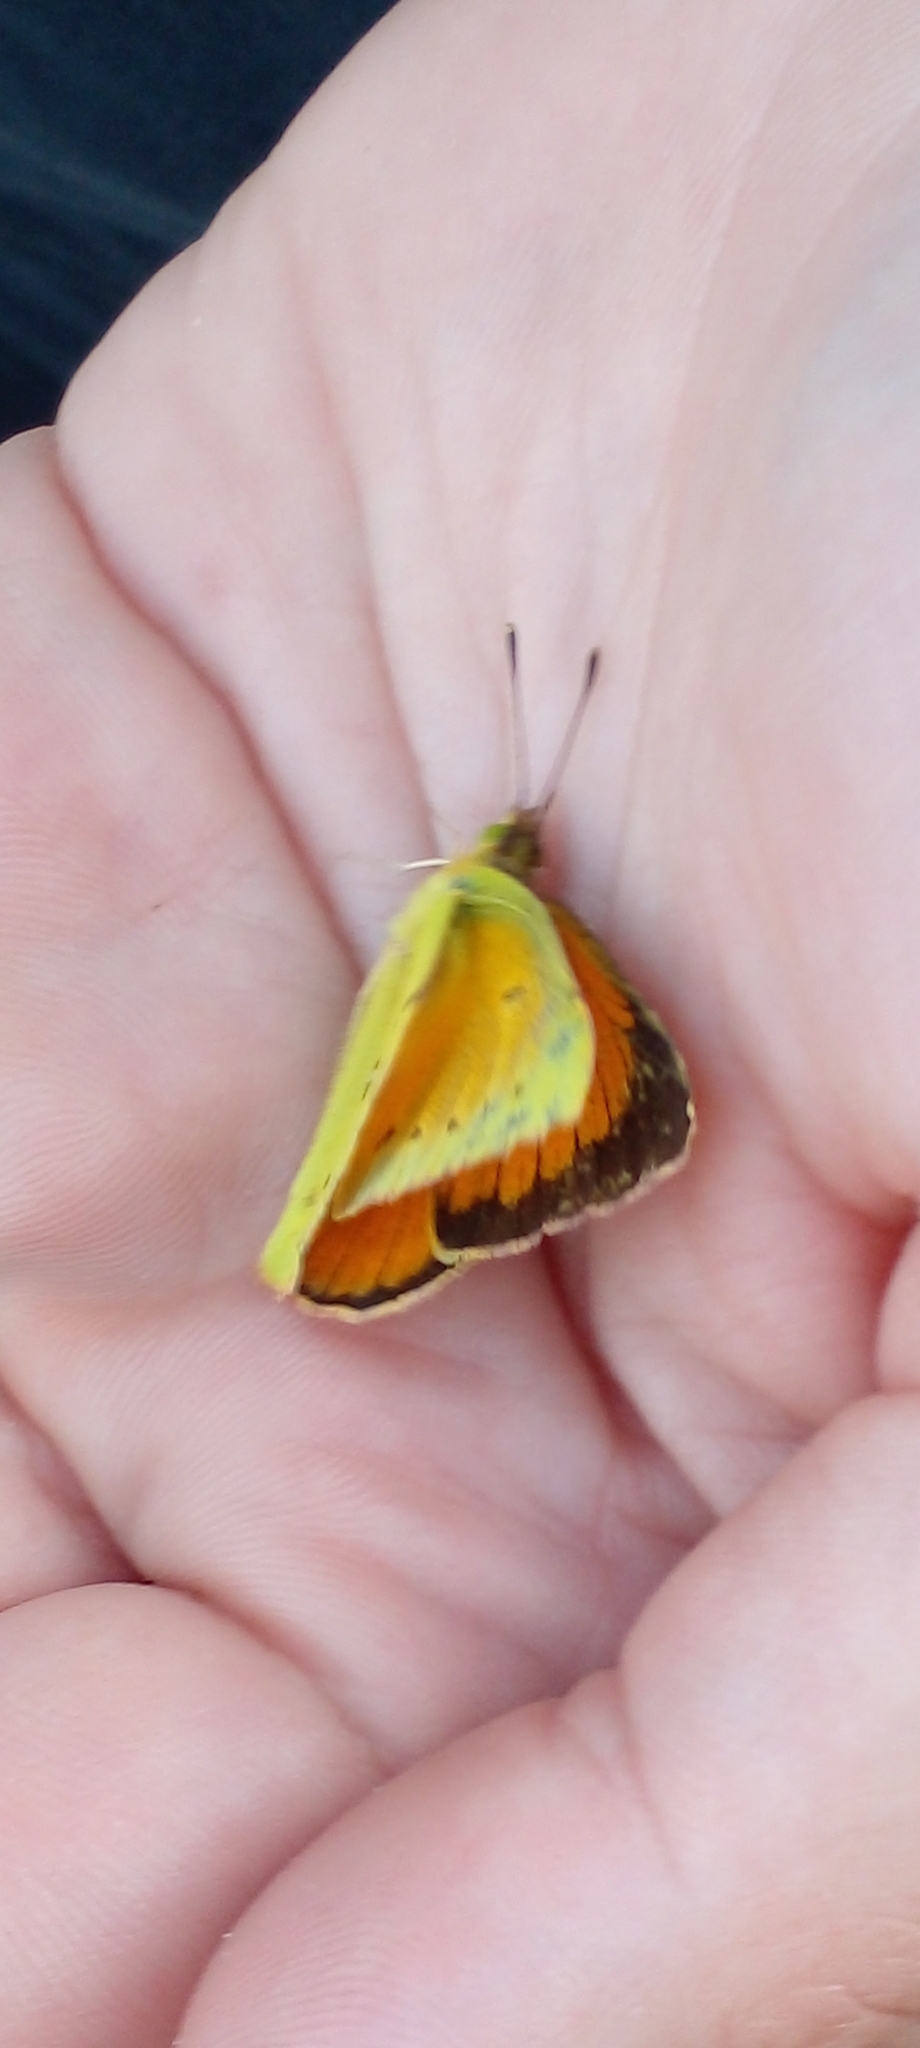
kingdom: Animalia
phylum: Arthropoda
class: Insecta
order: Lepidoptera
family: Pieridae
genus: Colias
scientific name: Colias lesbia
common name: Lesbia clouded yellow
